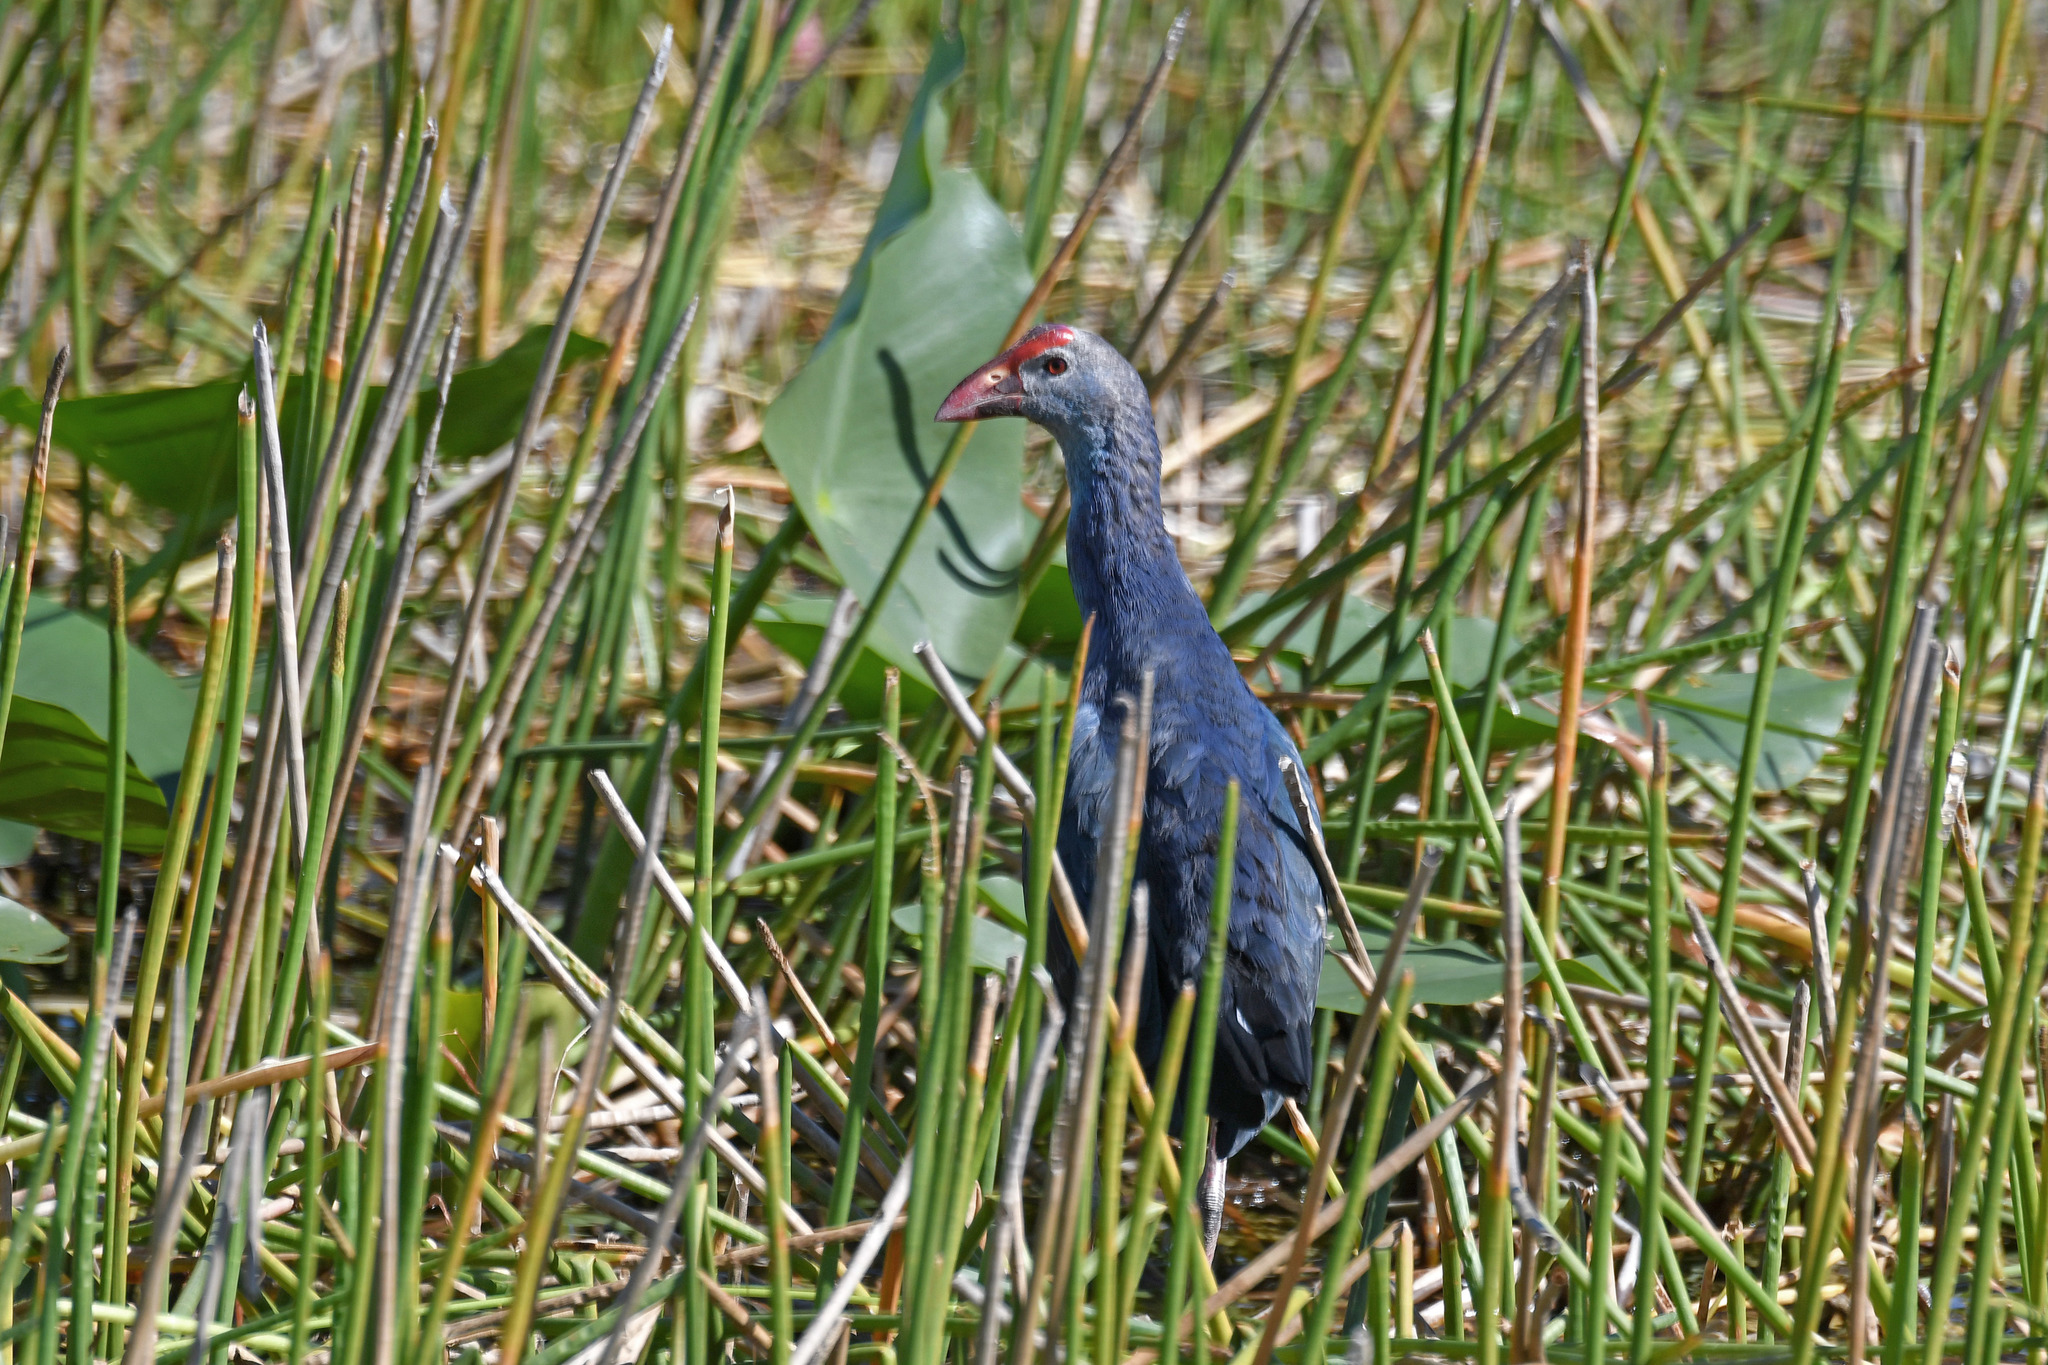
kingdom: Animalia
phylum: Chordata
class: Aves
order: Gruiformes
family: Rallidae
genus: Porphyrio
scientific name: Porphyrio porphyrio
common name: Purple swamphen
